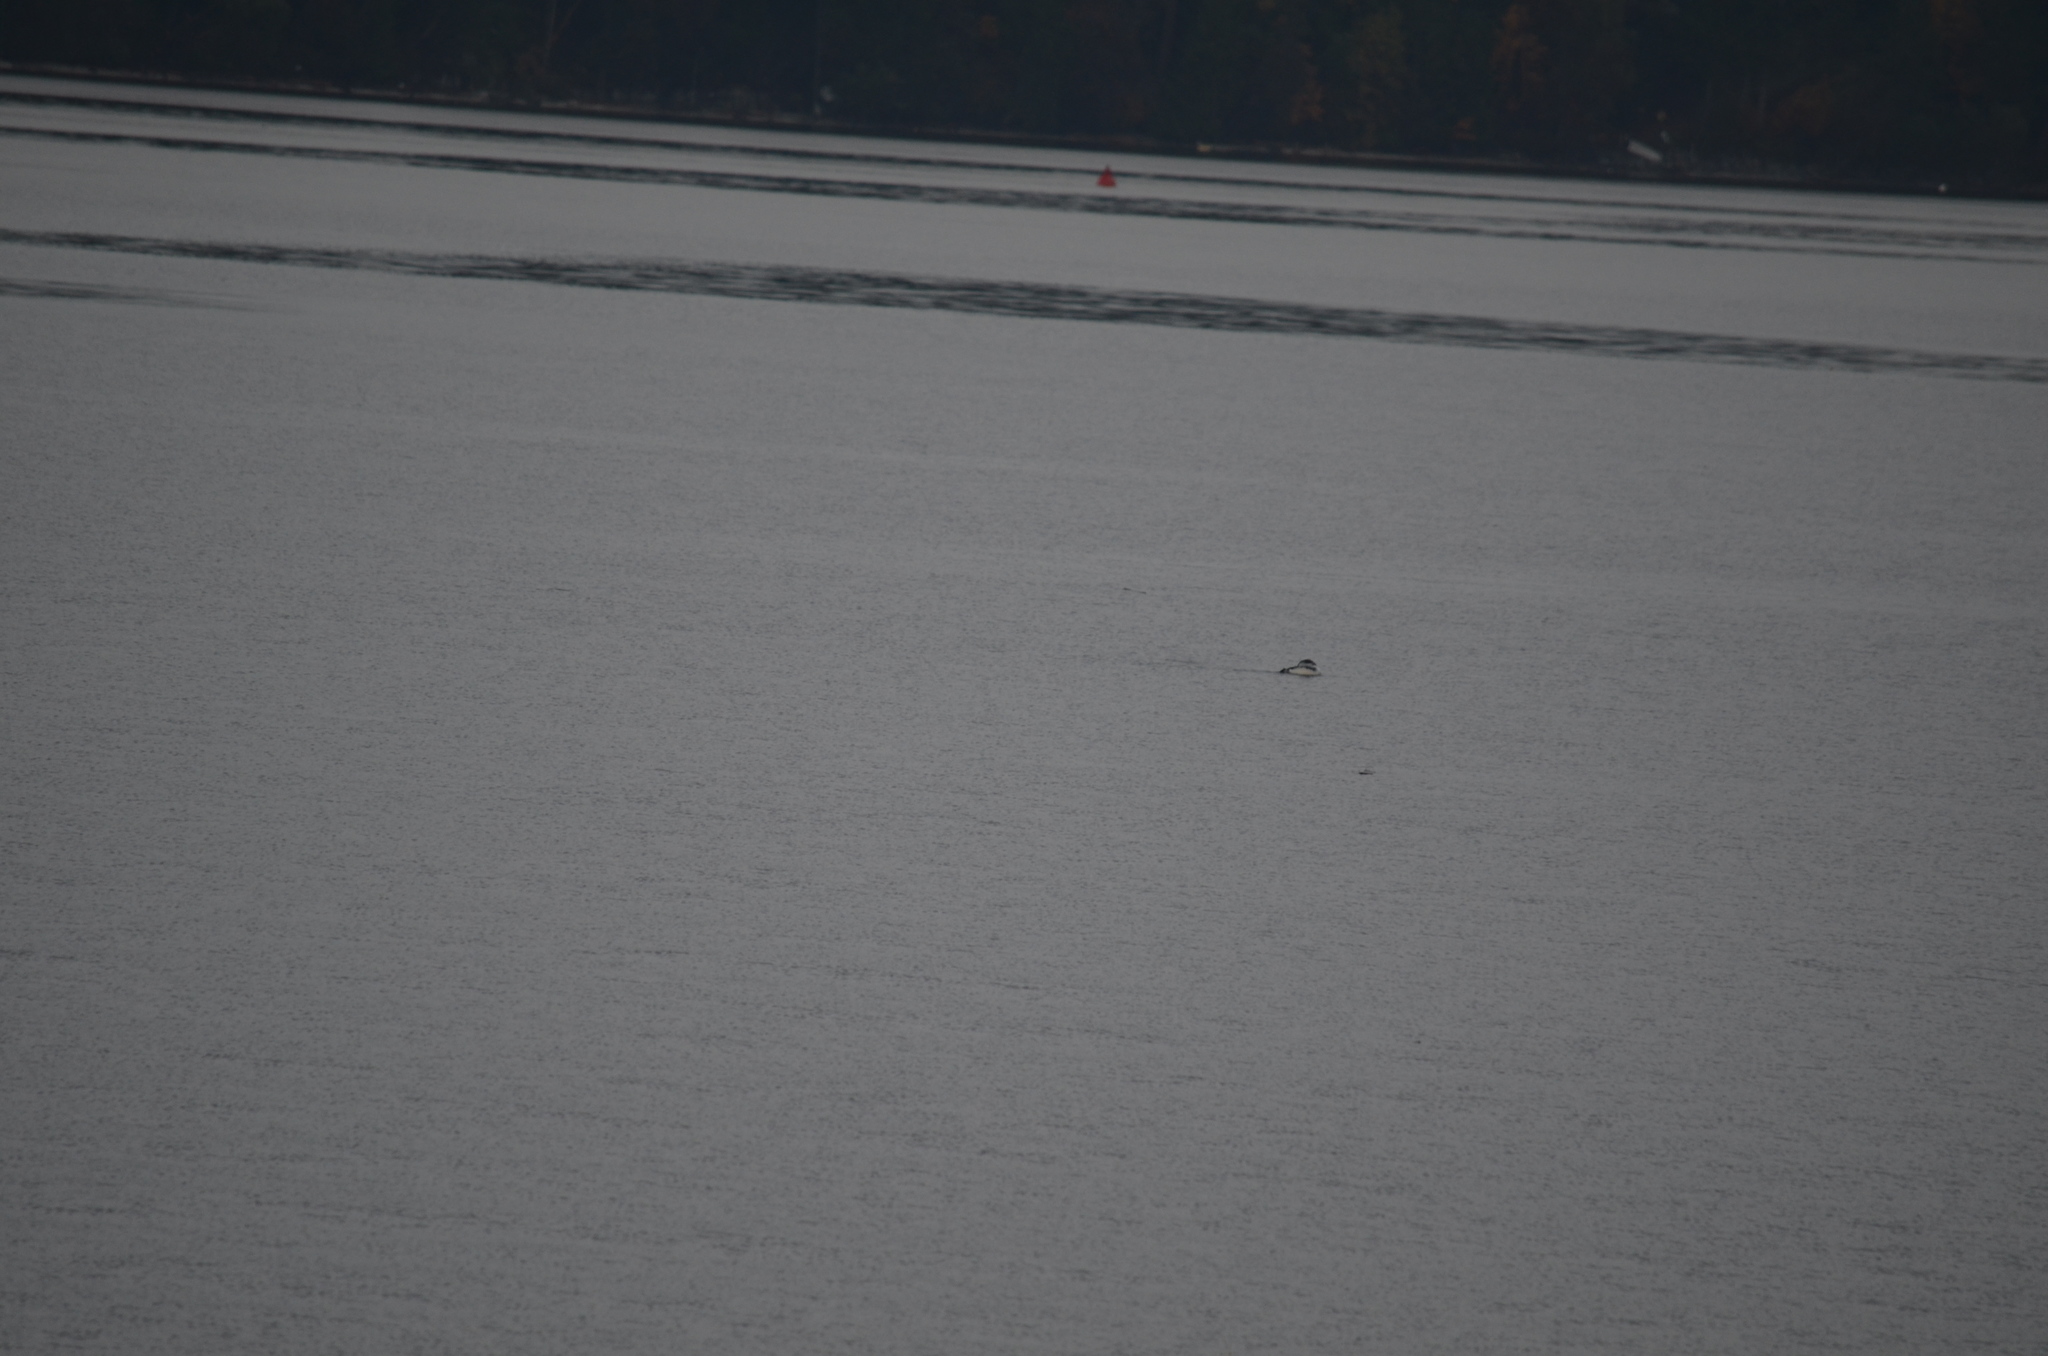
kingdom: Animalia
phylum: Chordata
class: Aves
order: Gaviiformes
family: Gaviidae
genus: Gavia
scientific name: Gavia immer
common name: Common loon
